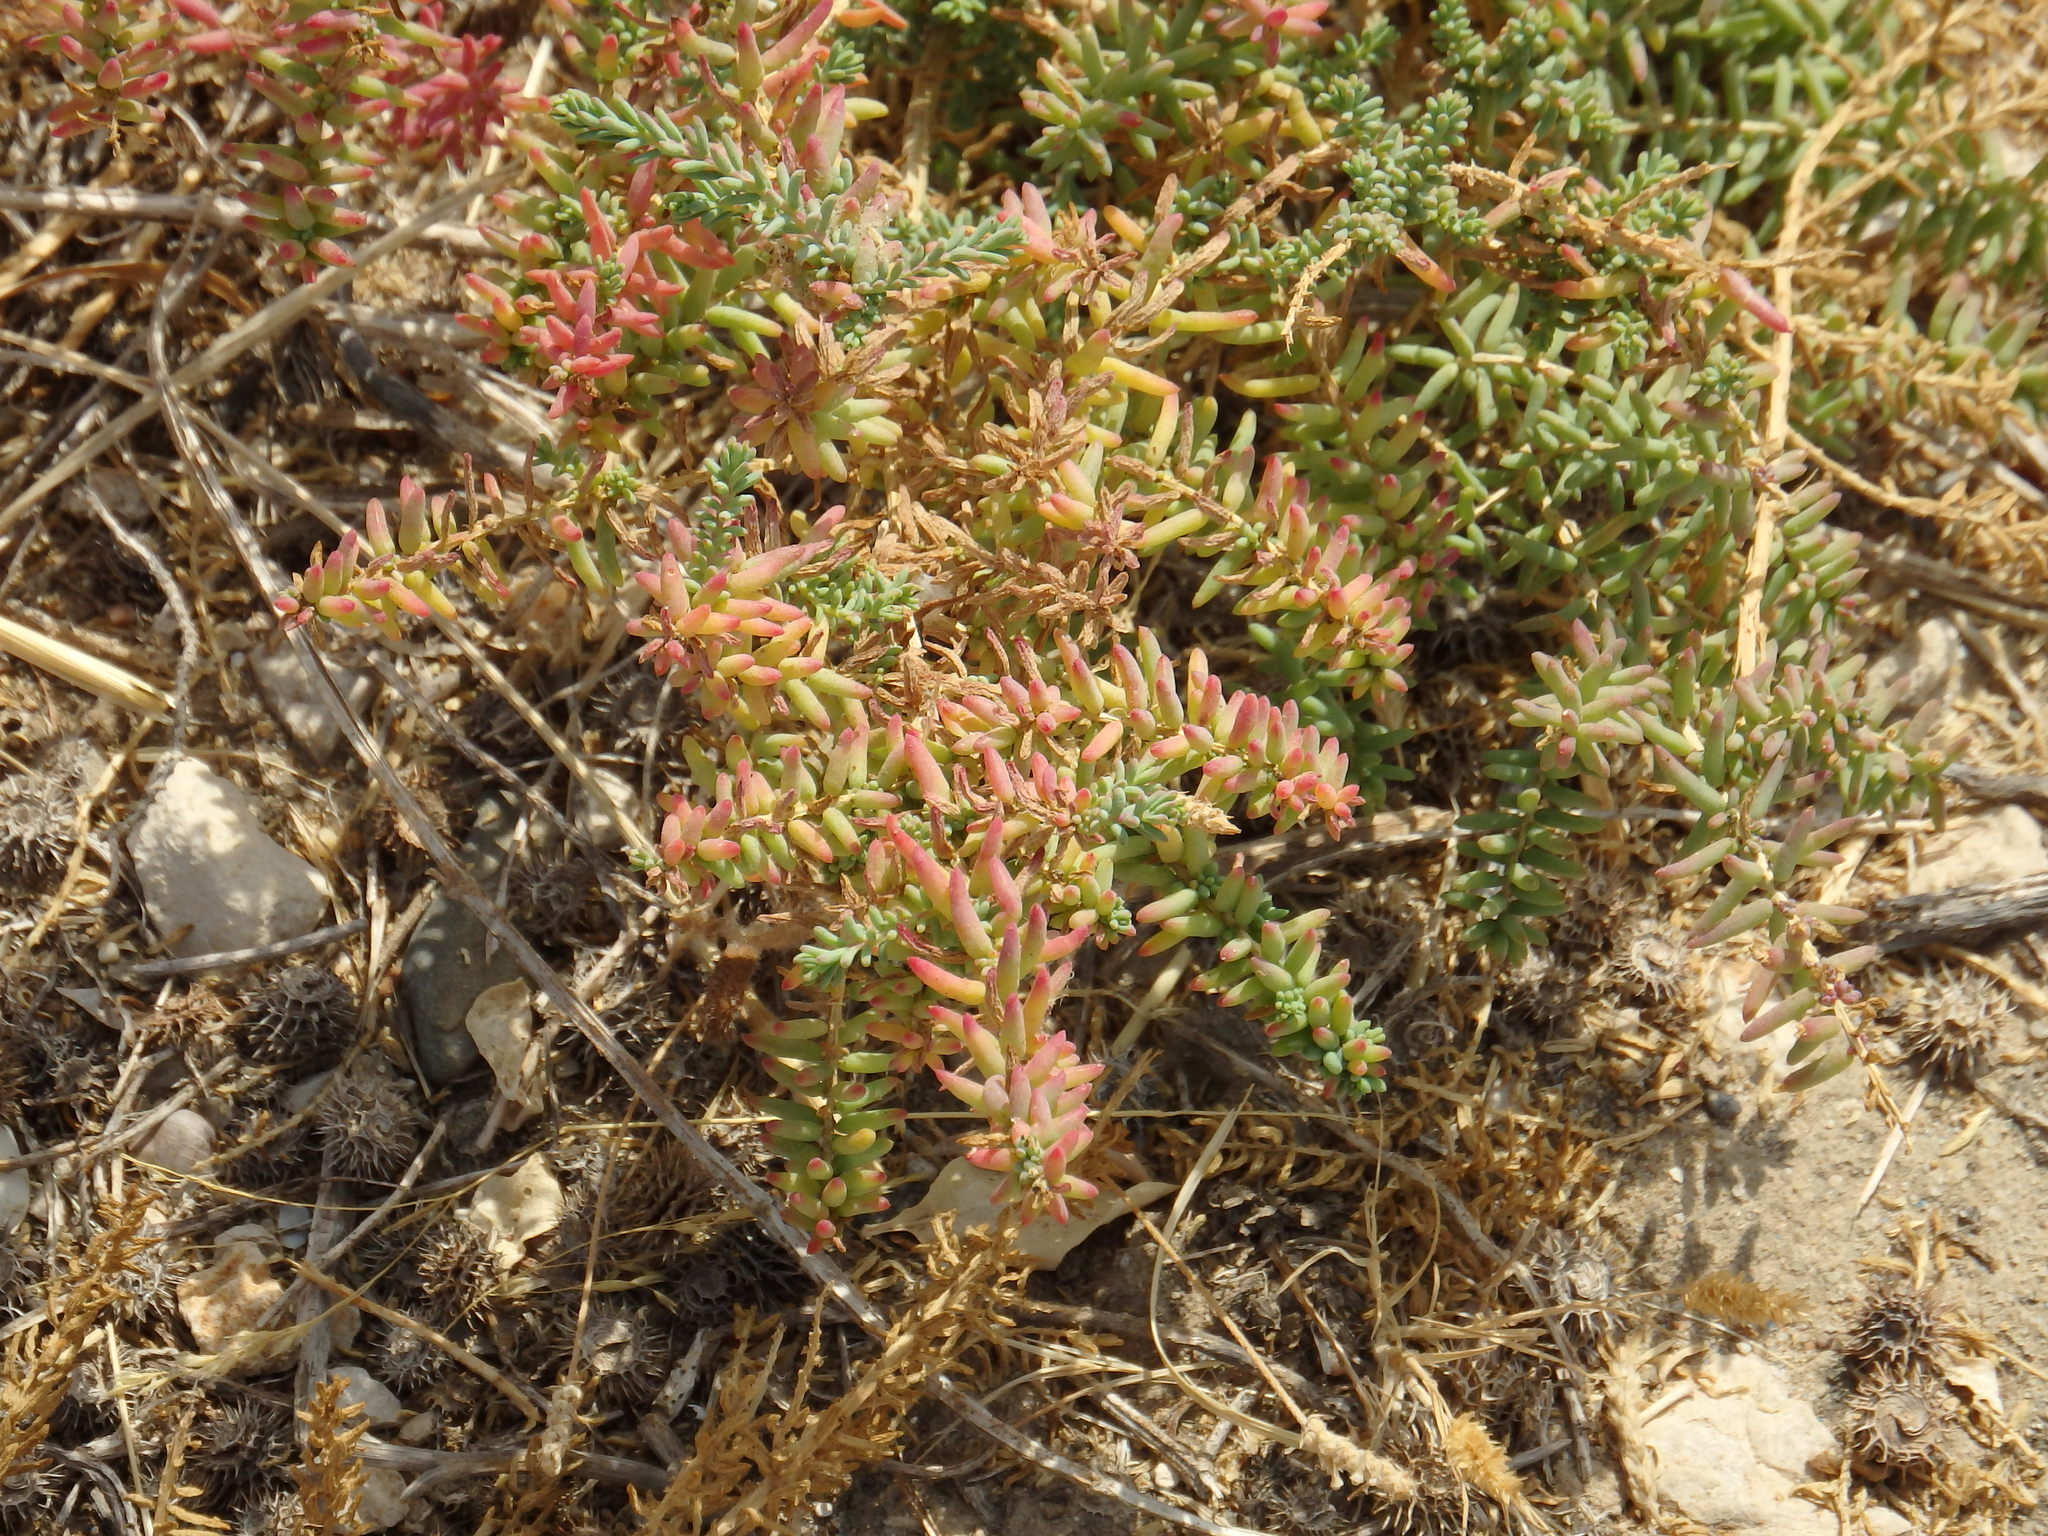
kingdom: Plantae
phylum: Tracheophyta
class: Magnoliopsida
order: Caryophyllales
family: Amaranthaceae
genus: Suaeda
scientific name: Suaeda vera
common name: Shrubby sea-blite
